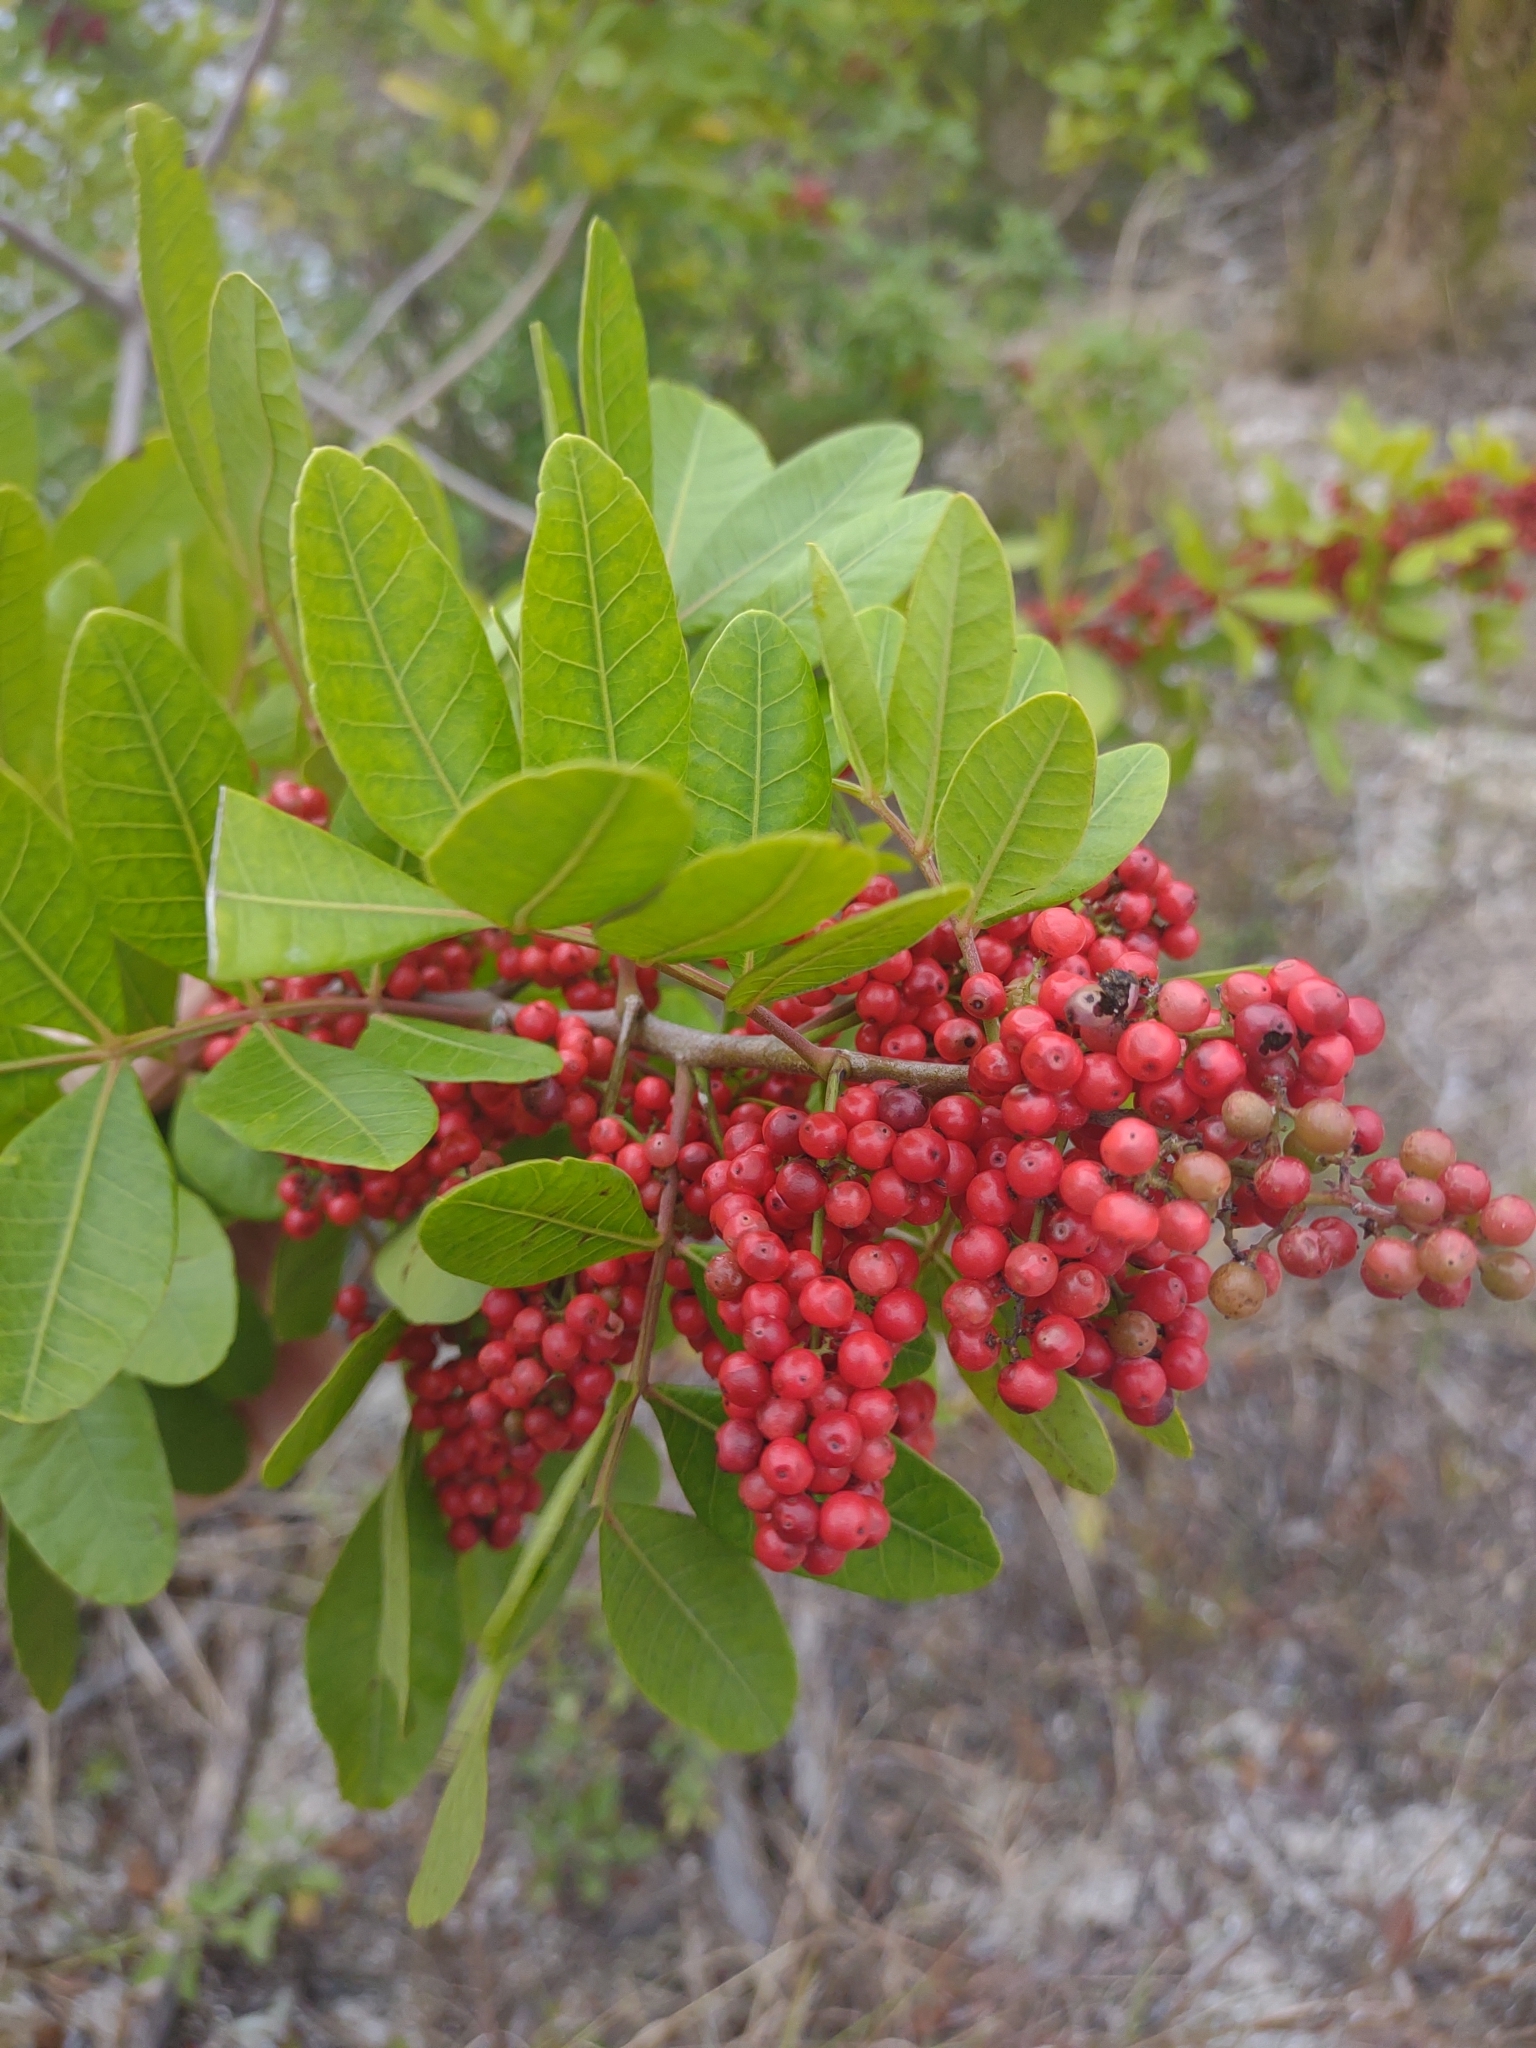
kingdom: Plantae
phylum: Tracheophyta
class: Magnoliopsida
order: Sapindales
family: Anacardiaceae
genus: Schinus
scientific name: Schinus terebinthifolia
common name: Brazilian peppertree
